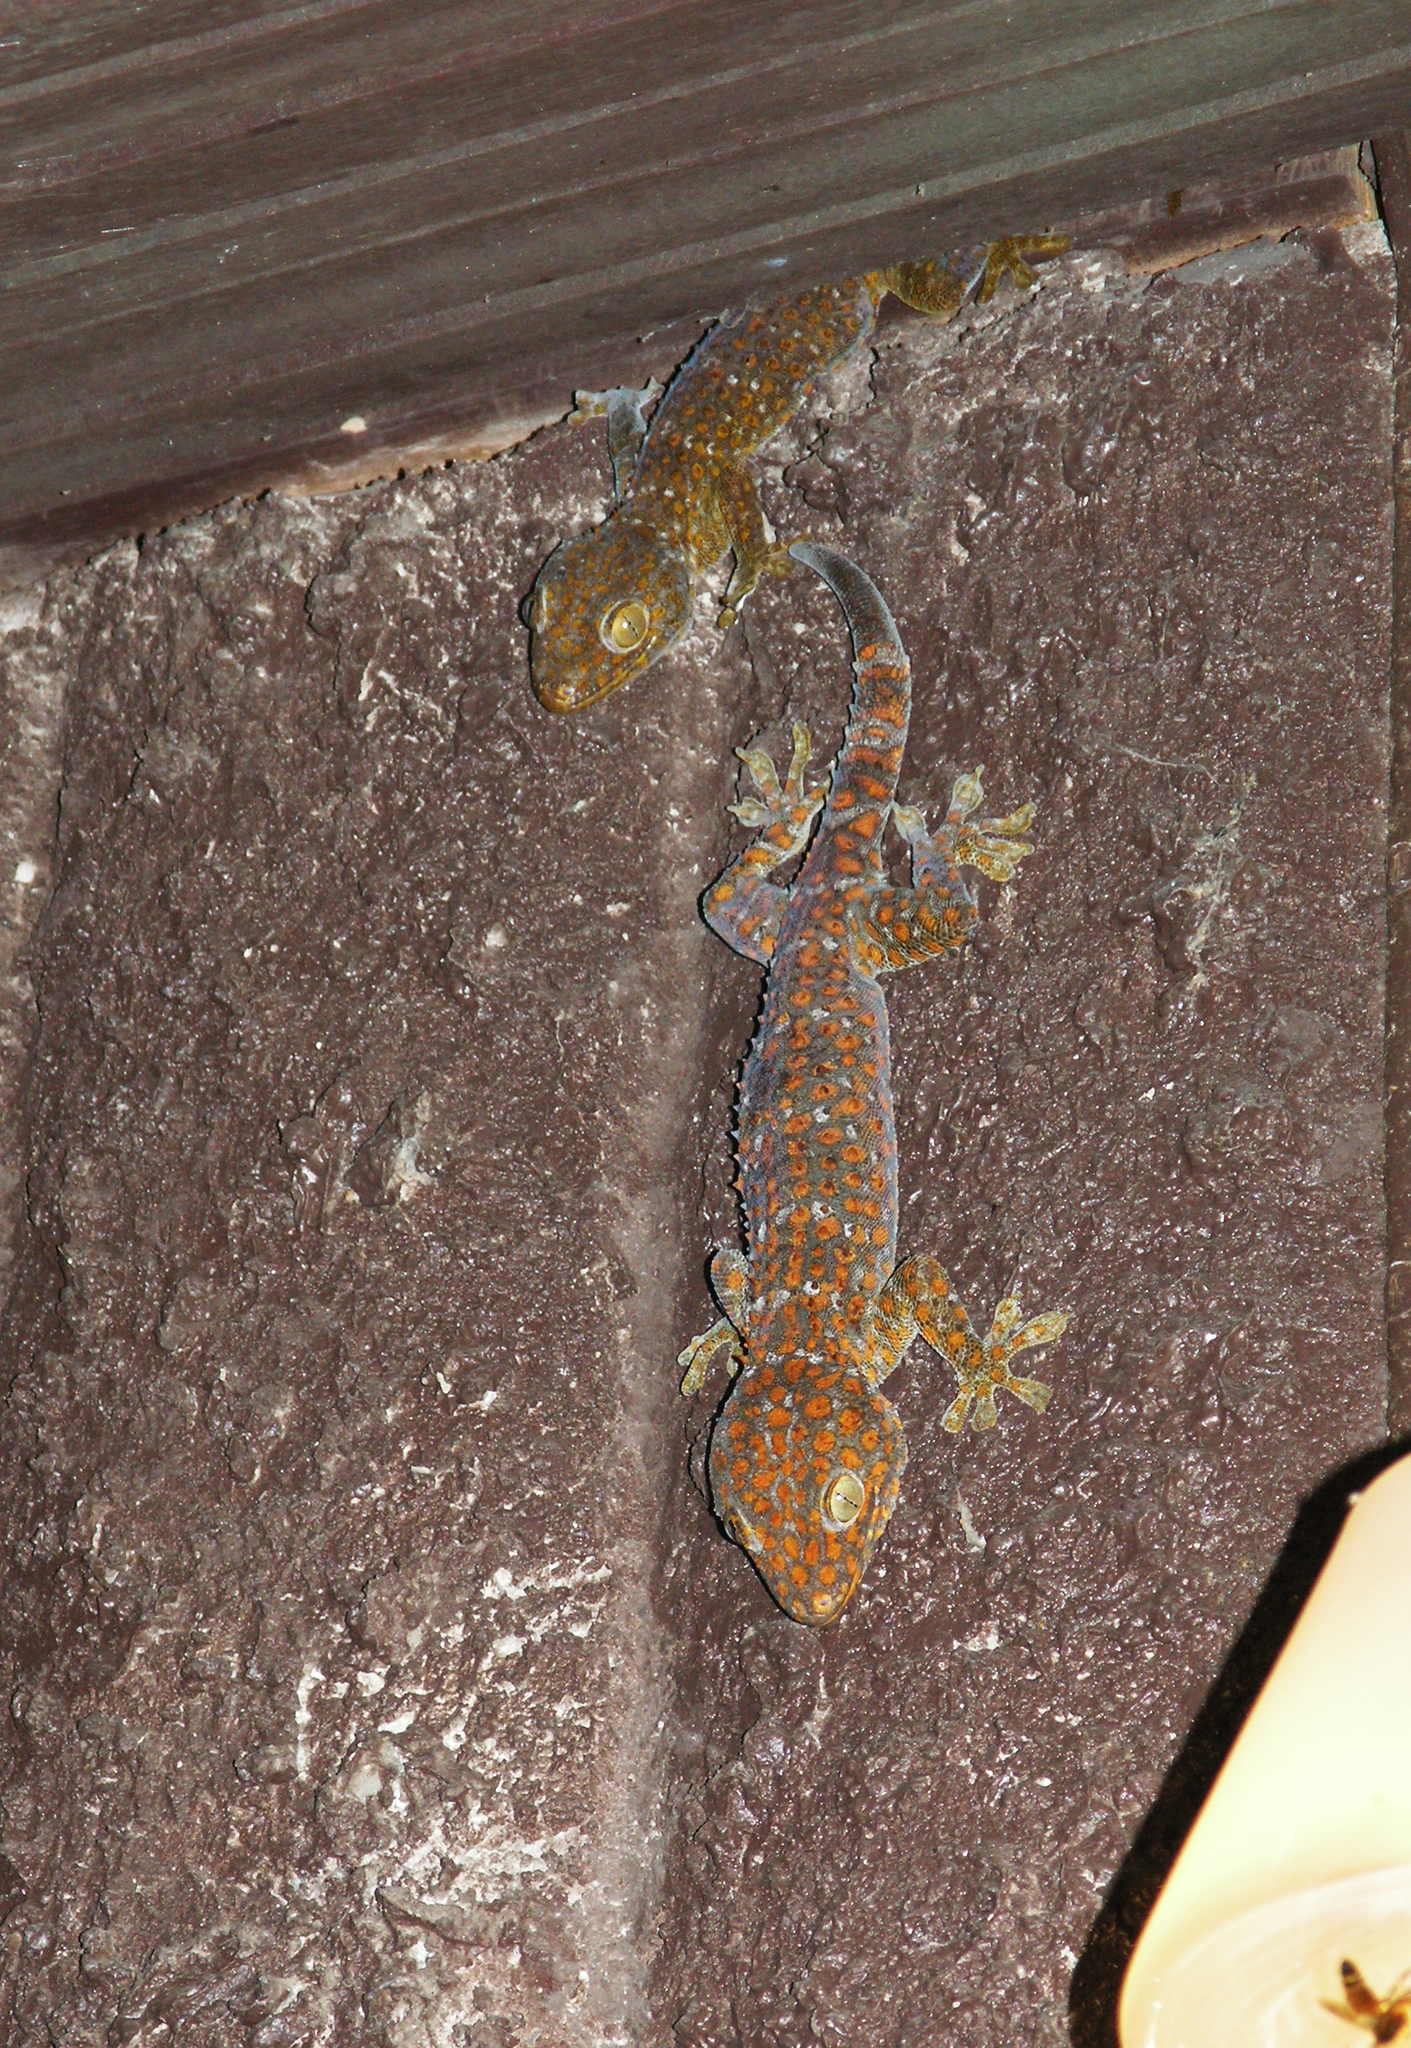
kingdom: Animalia
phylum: Chordata
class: Squamata
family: Gekkonidae
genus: Gekko
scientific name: Gekko gecko
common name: Tokay gecko
